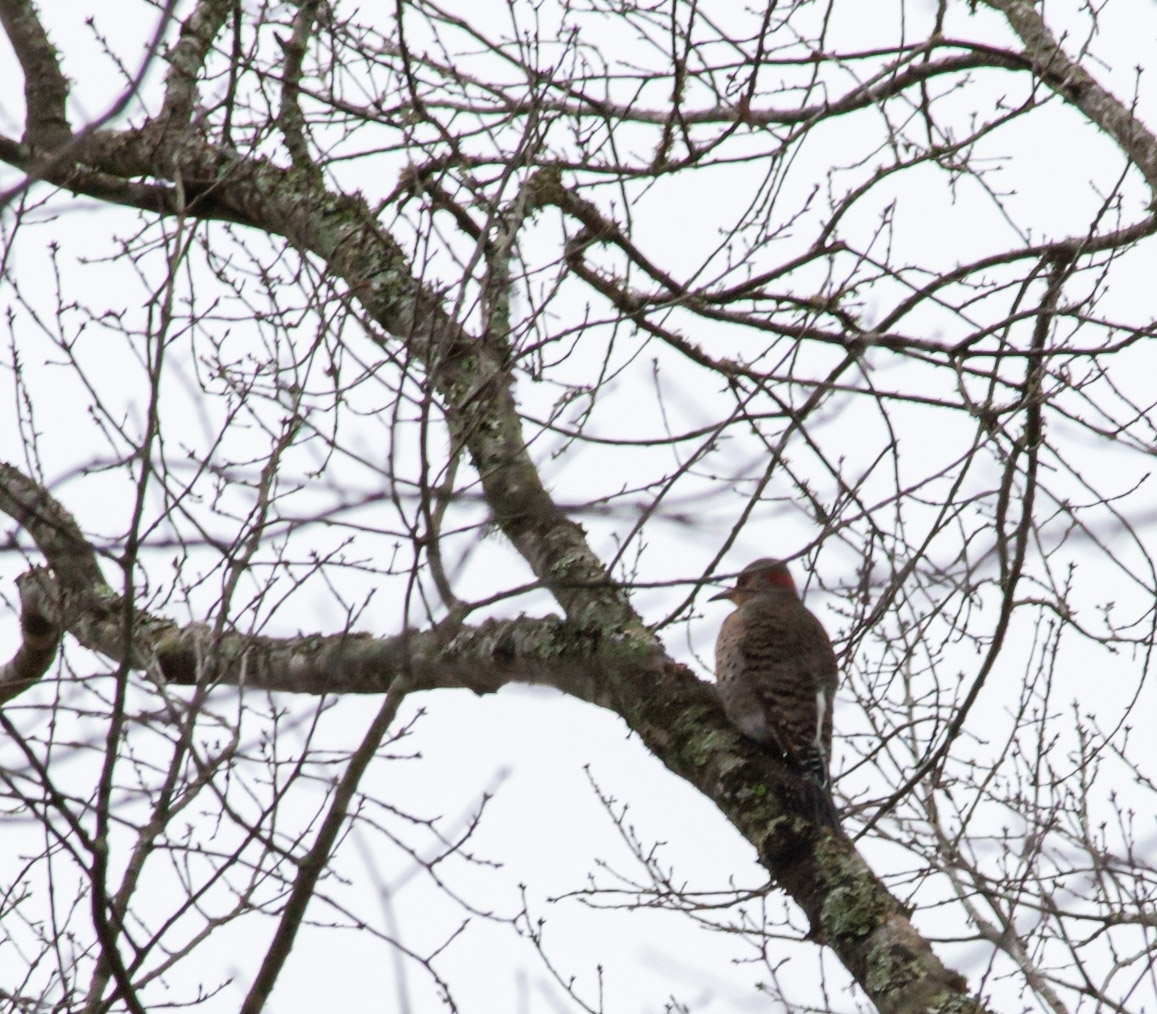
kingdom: Animalia
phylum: Chordata
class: Aves
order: Piciformes
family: Picidae
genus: Colaptes
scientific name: Colaptes auratus
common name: Northern flicker
